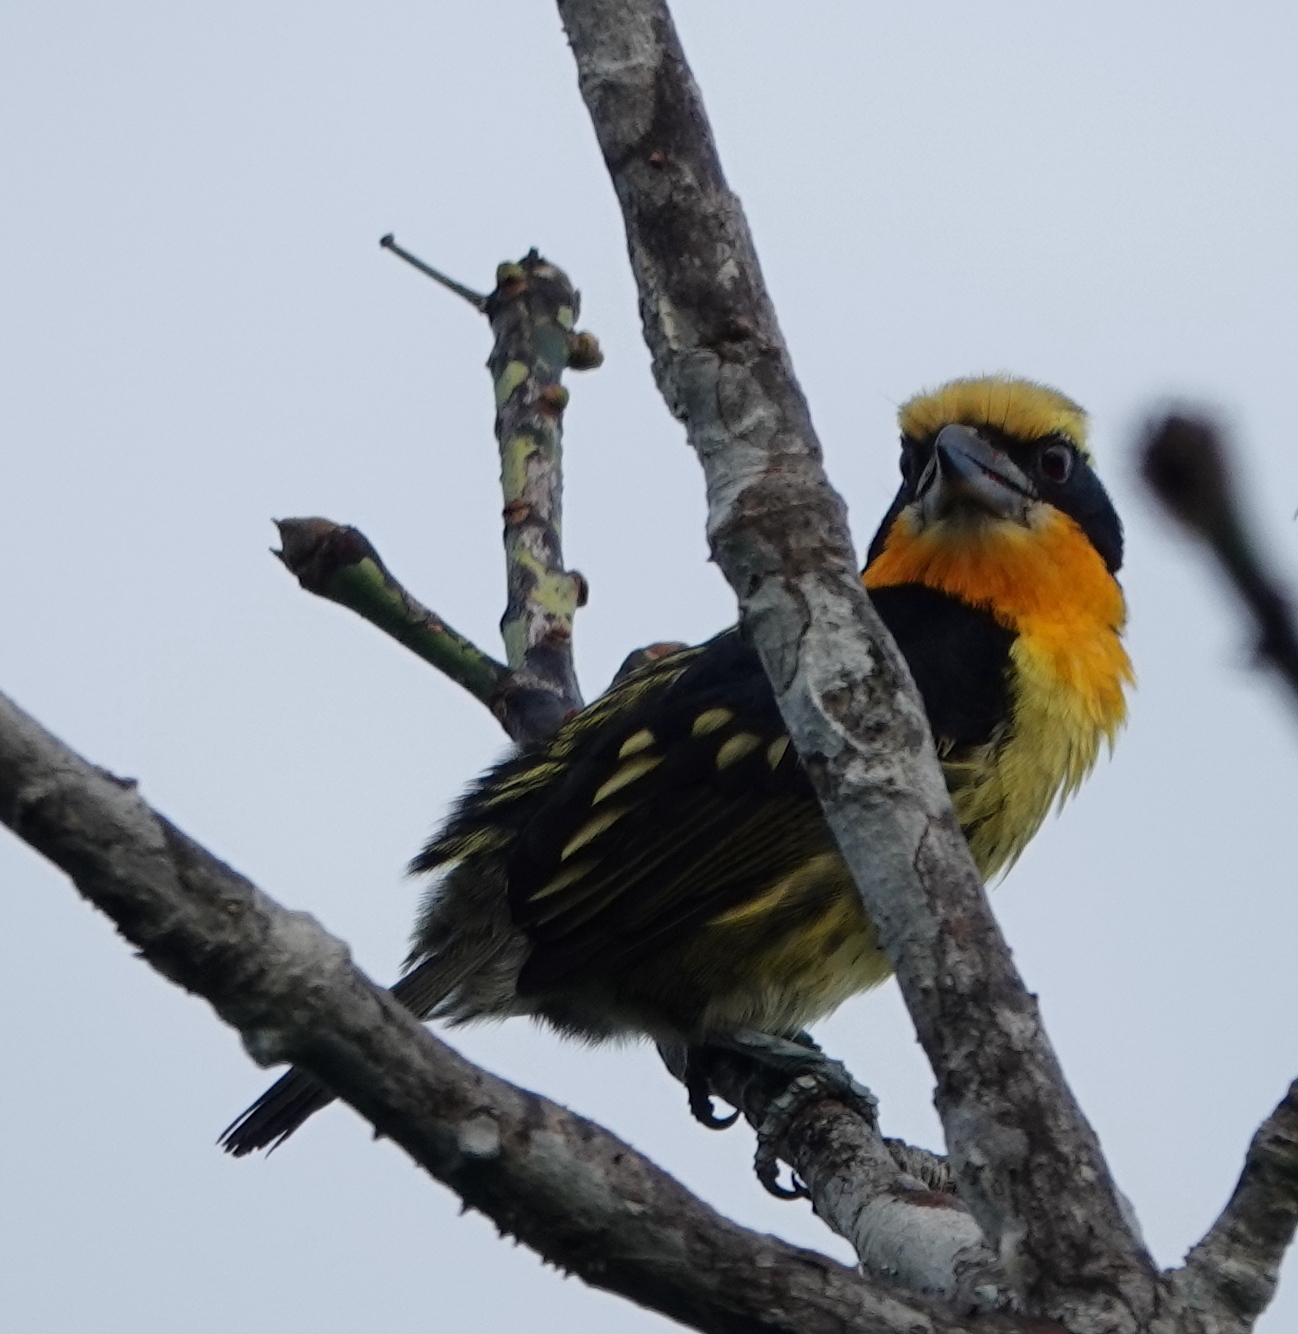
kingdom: Animalia
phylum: Chordata
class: Aves
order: Piciformes
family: Capitonidae
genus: Capito
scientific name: Capito auratus
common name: Gilded barbet
